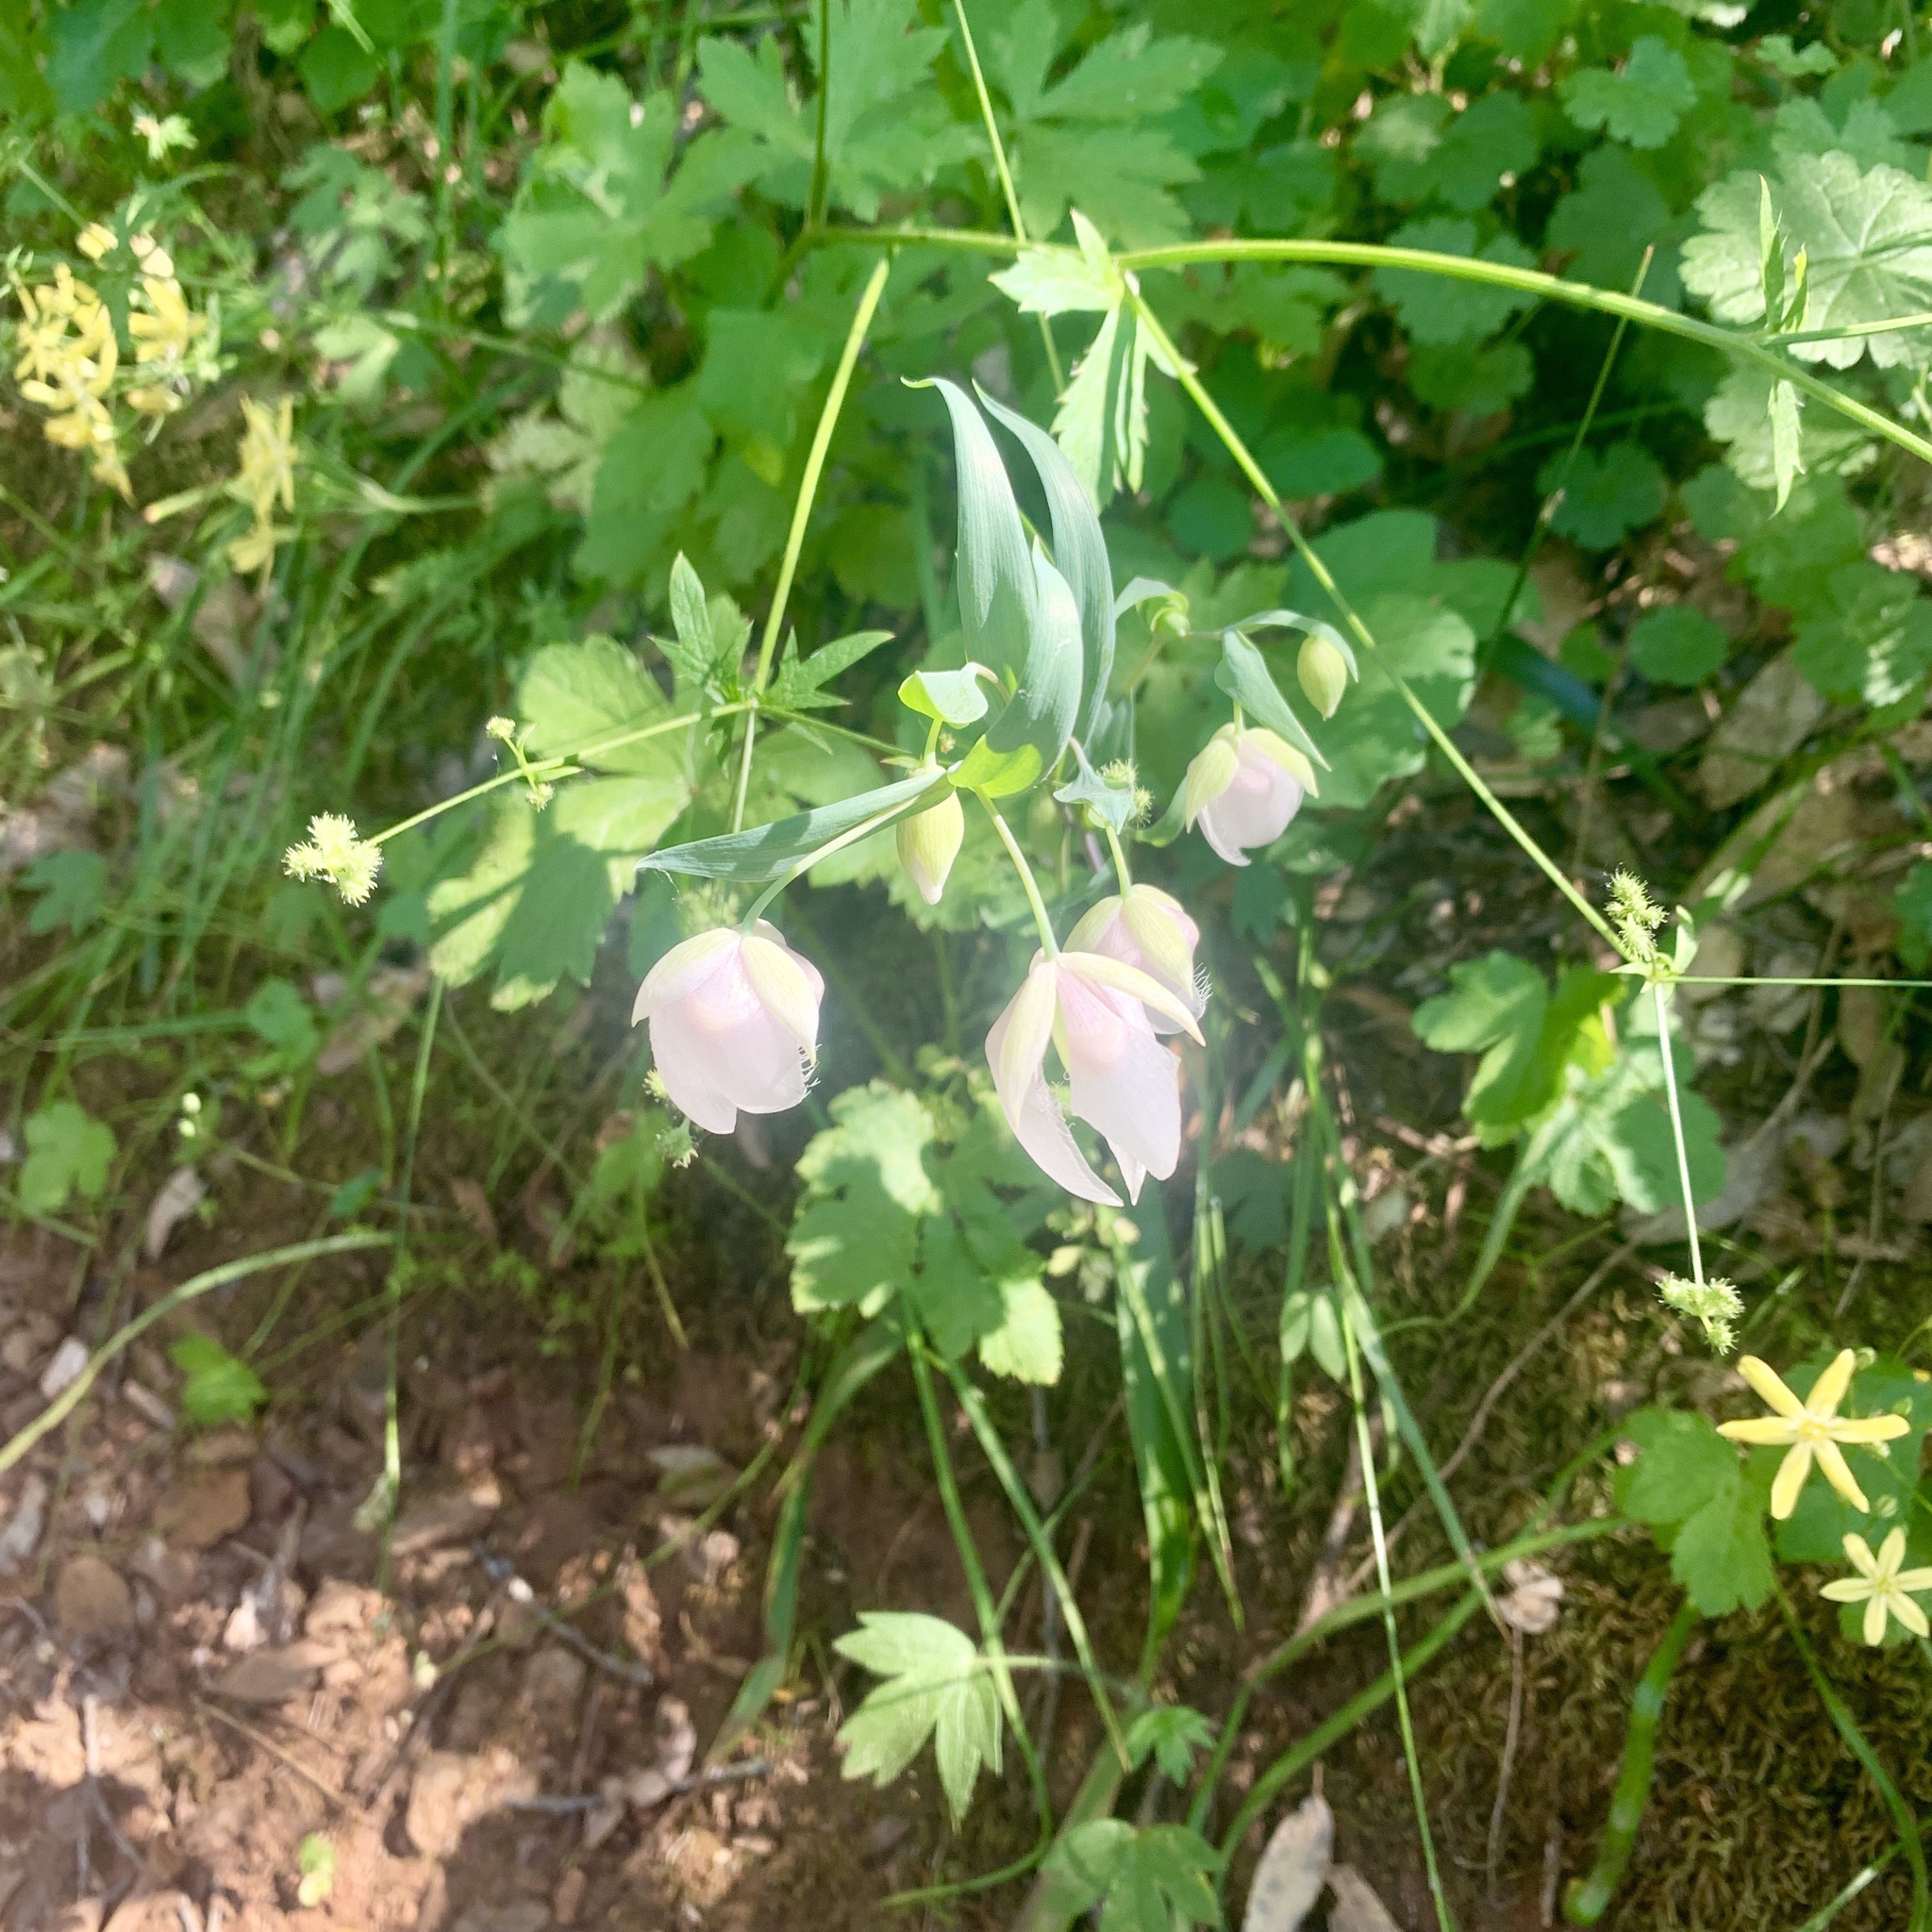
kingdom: Plantae
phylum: Tracheophyta
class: Liliopsida
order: Liliales
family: Liliaceae
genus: Calochortus
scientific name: Calochortus albus
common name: Fairy-lantern
